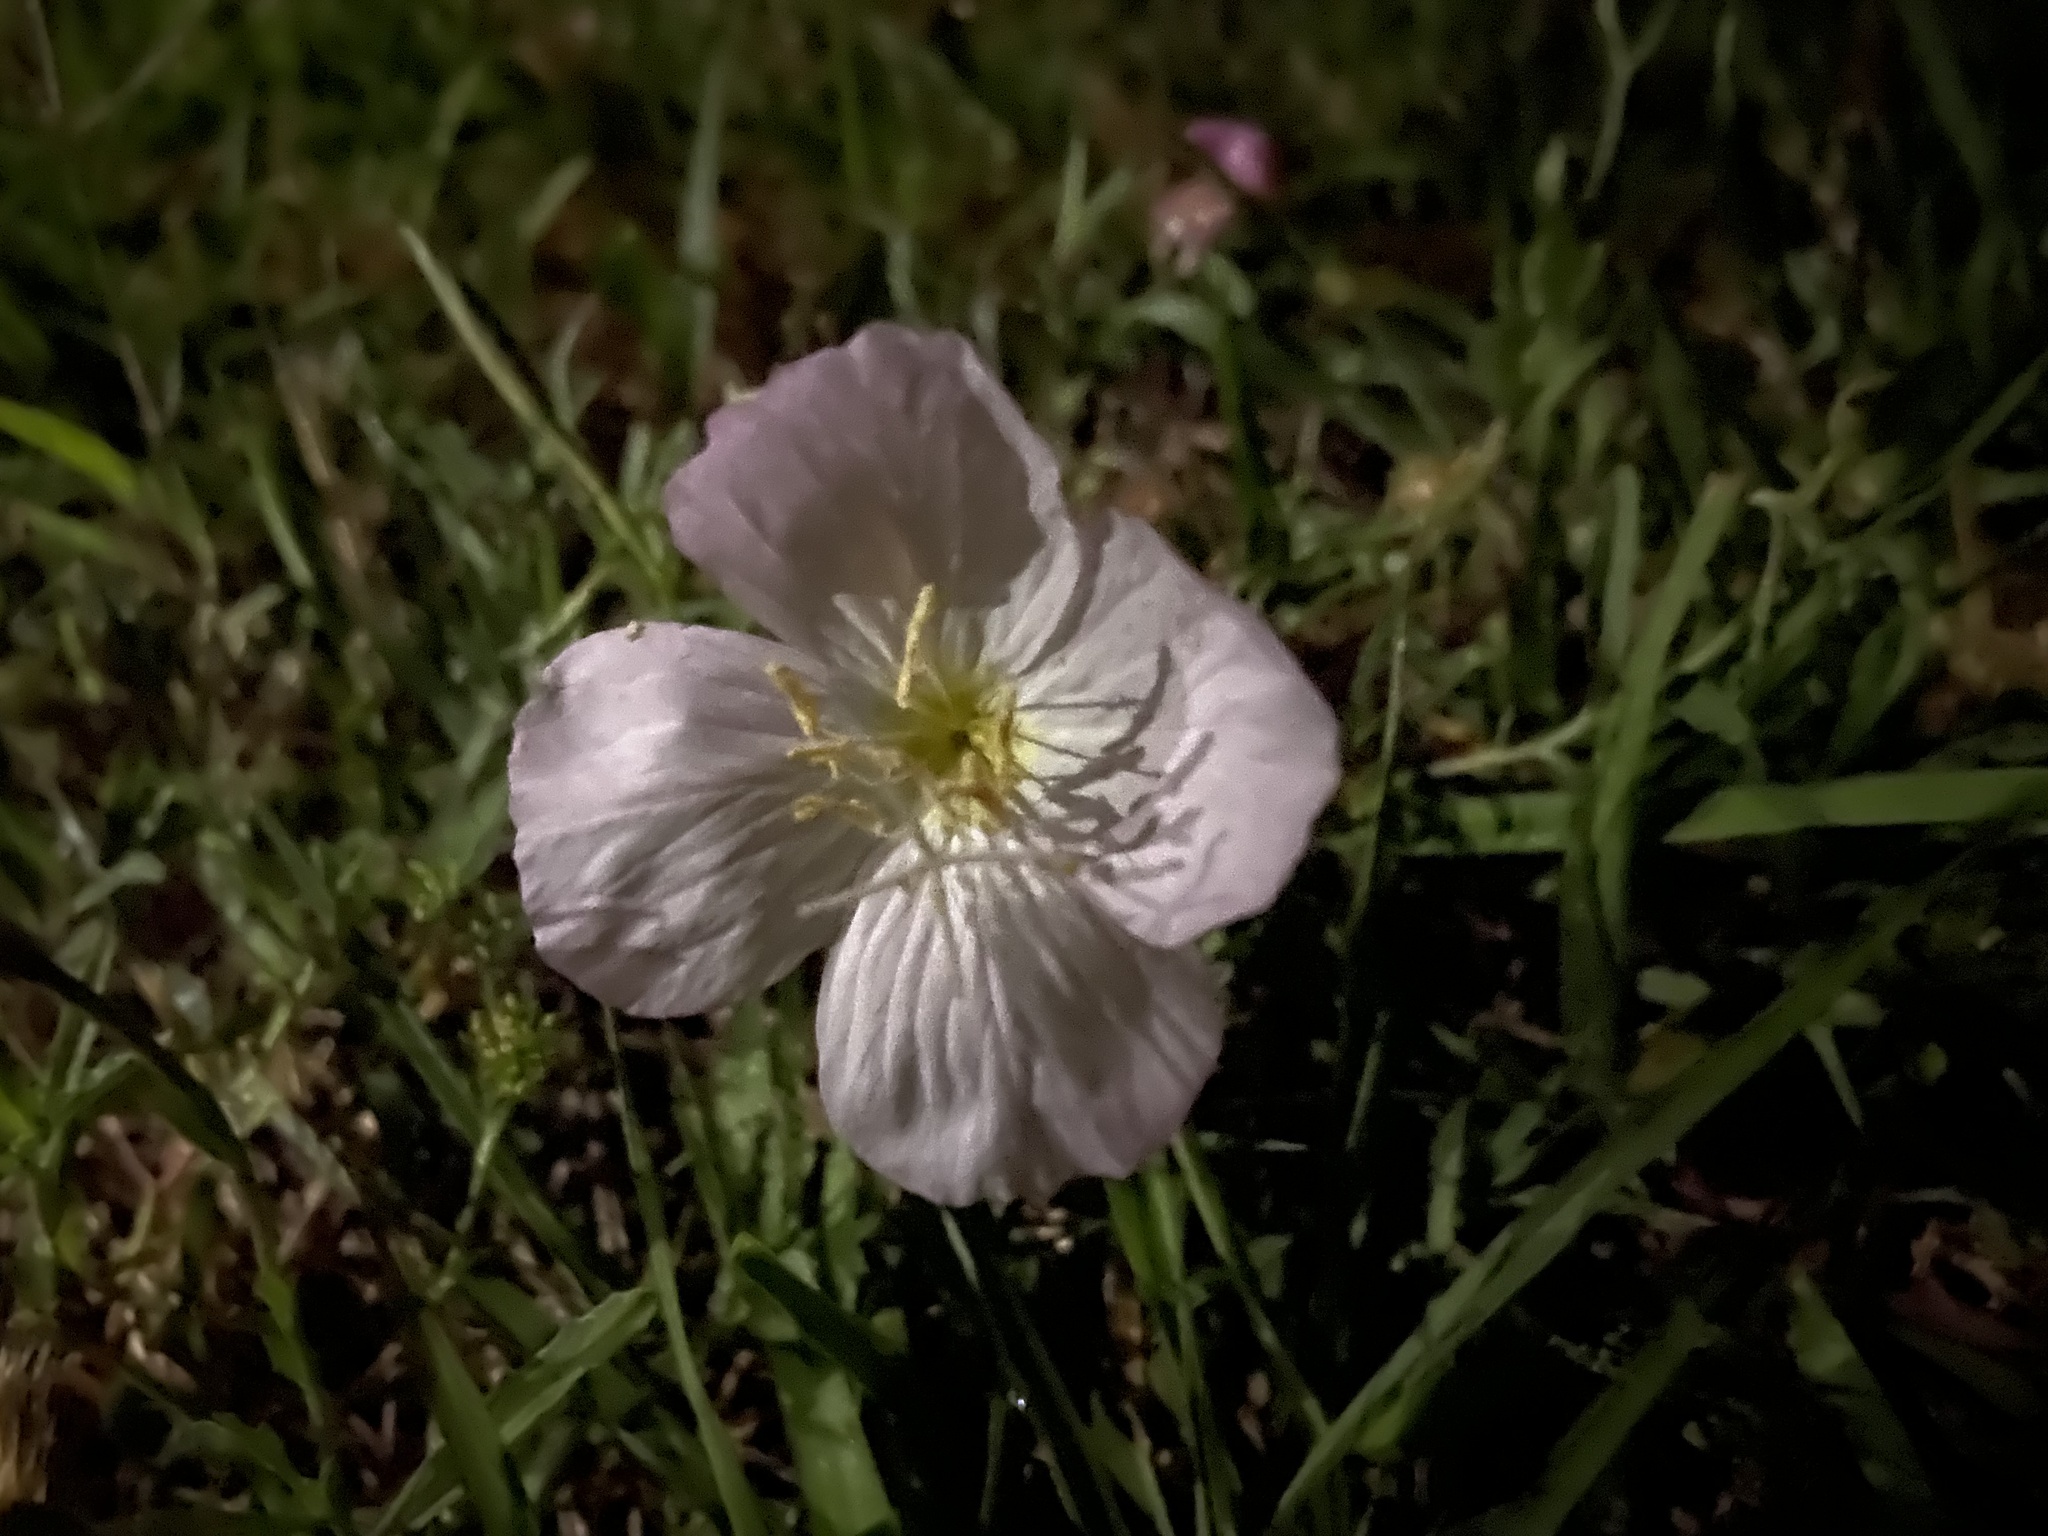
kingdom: Plantae
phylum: Tracheophyta
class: Magnoliopsida
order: Myrtales
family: Onagraceae
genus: Oenothera
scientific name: Oenothera speciosa
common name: White evening-primrose
